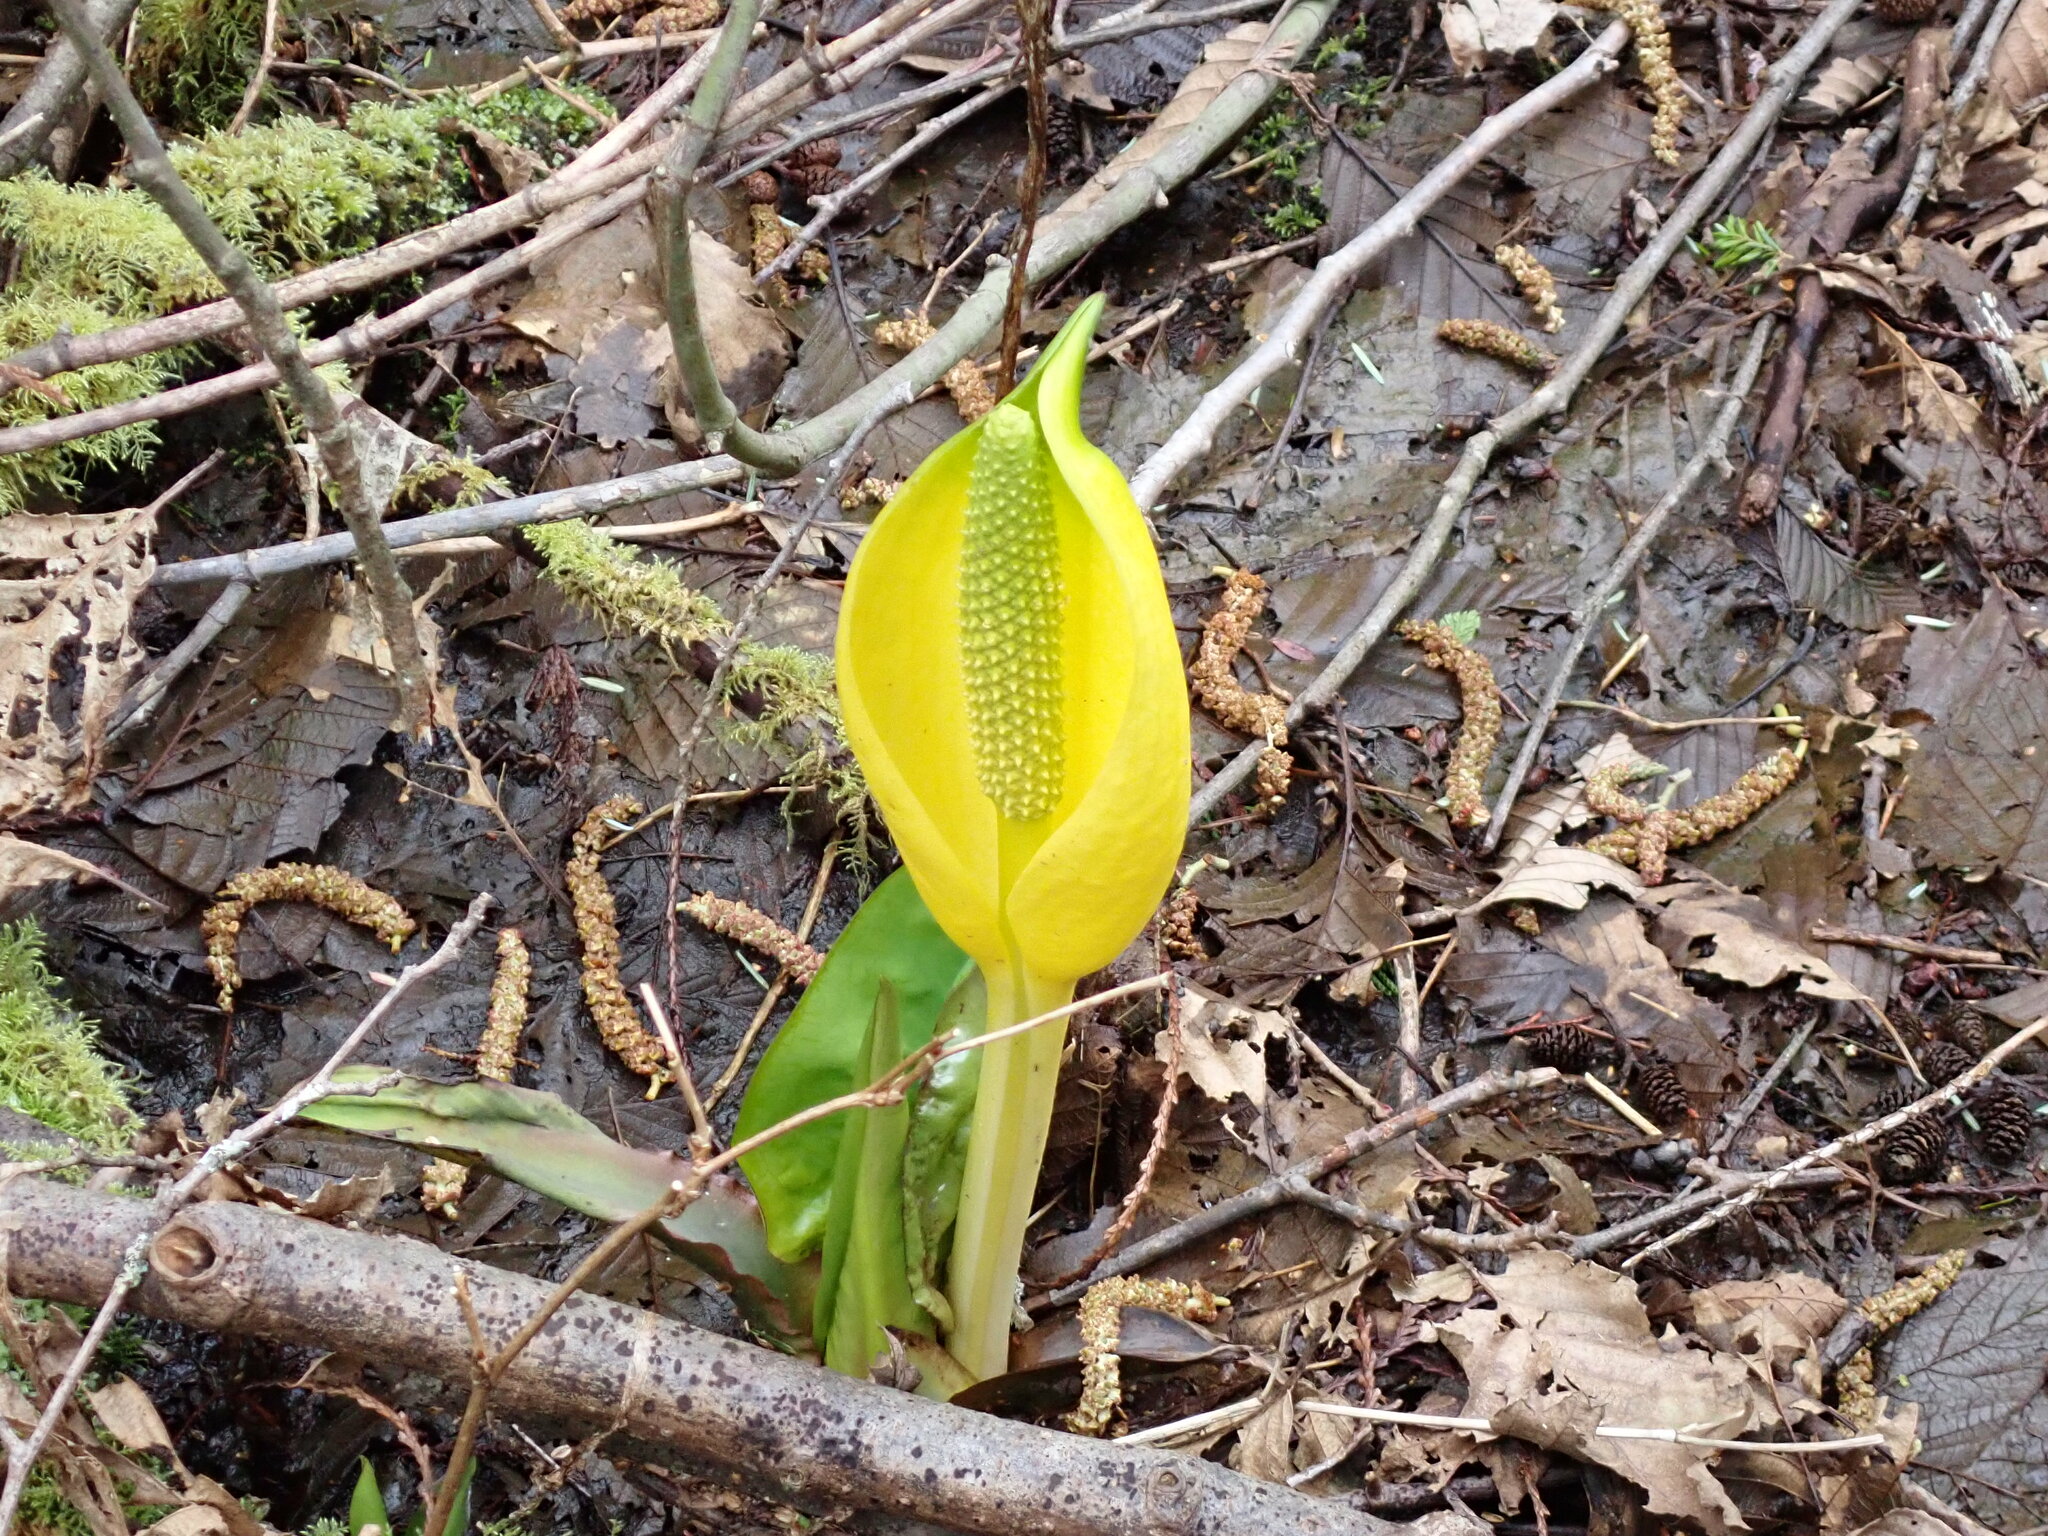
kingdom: Plantae
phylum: Tracheophyta
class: Liliopsida
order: Alismatales
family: Araceae
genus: Lysichiton
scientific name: Lysichiton americanus
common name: American skunk cabbage
